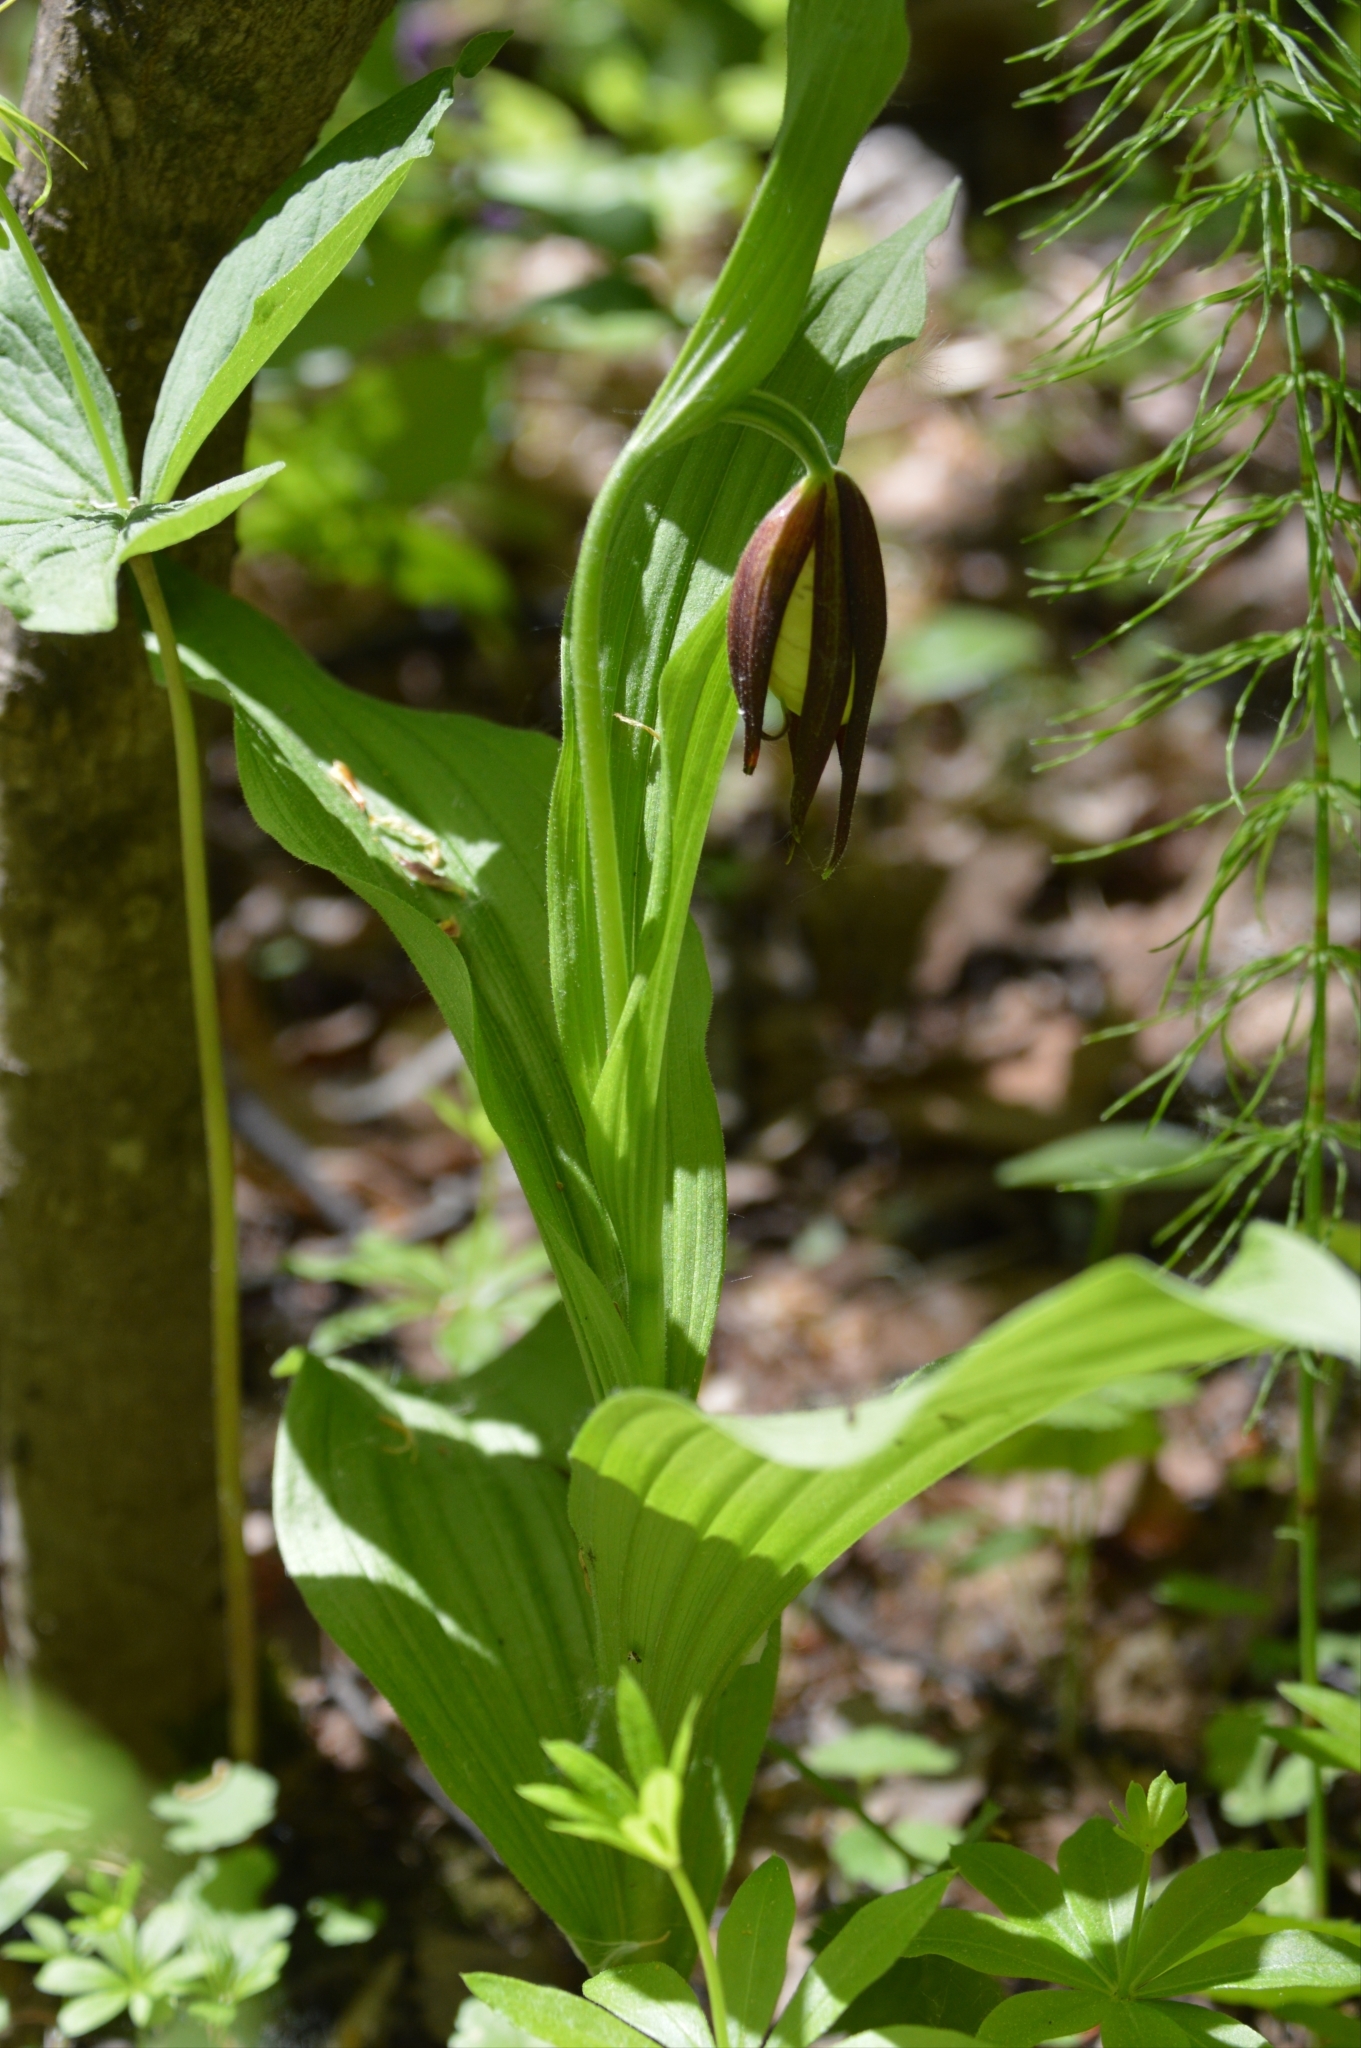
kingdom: Plantae
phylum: Tracheophyta
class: Liliopsida
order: Asparagales
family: Orchidaceae
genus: Cypripedium
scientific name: Cypripedium calceolus
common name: Lady's-slipper
